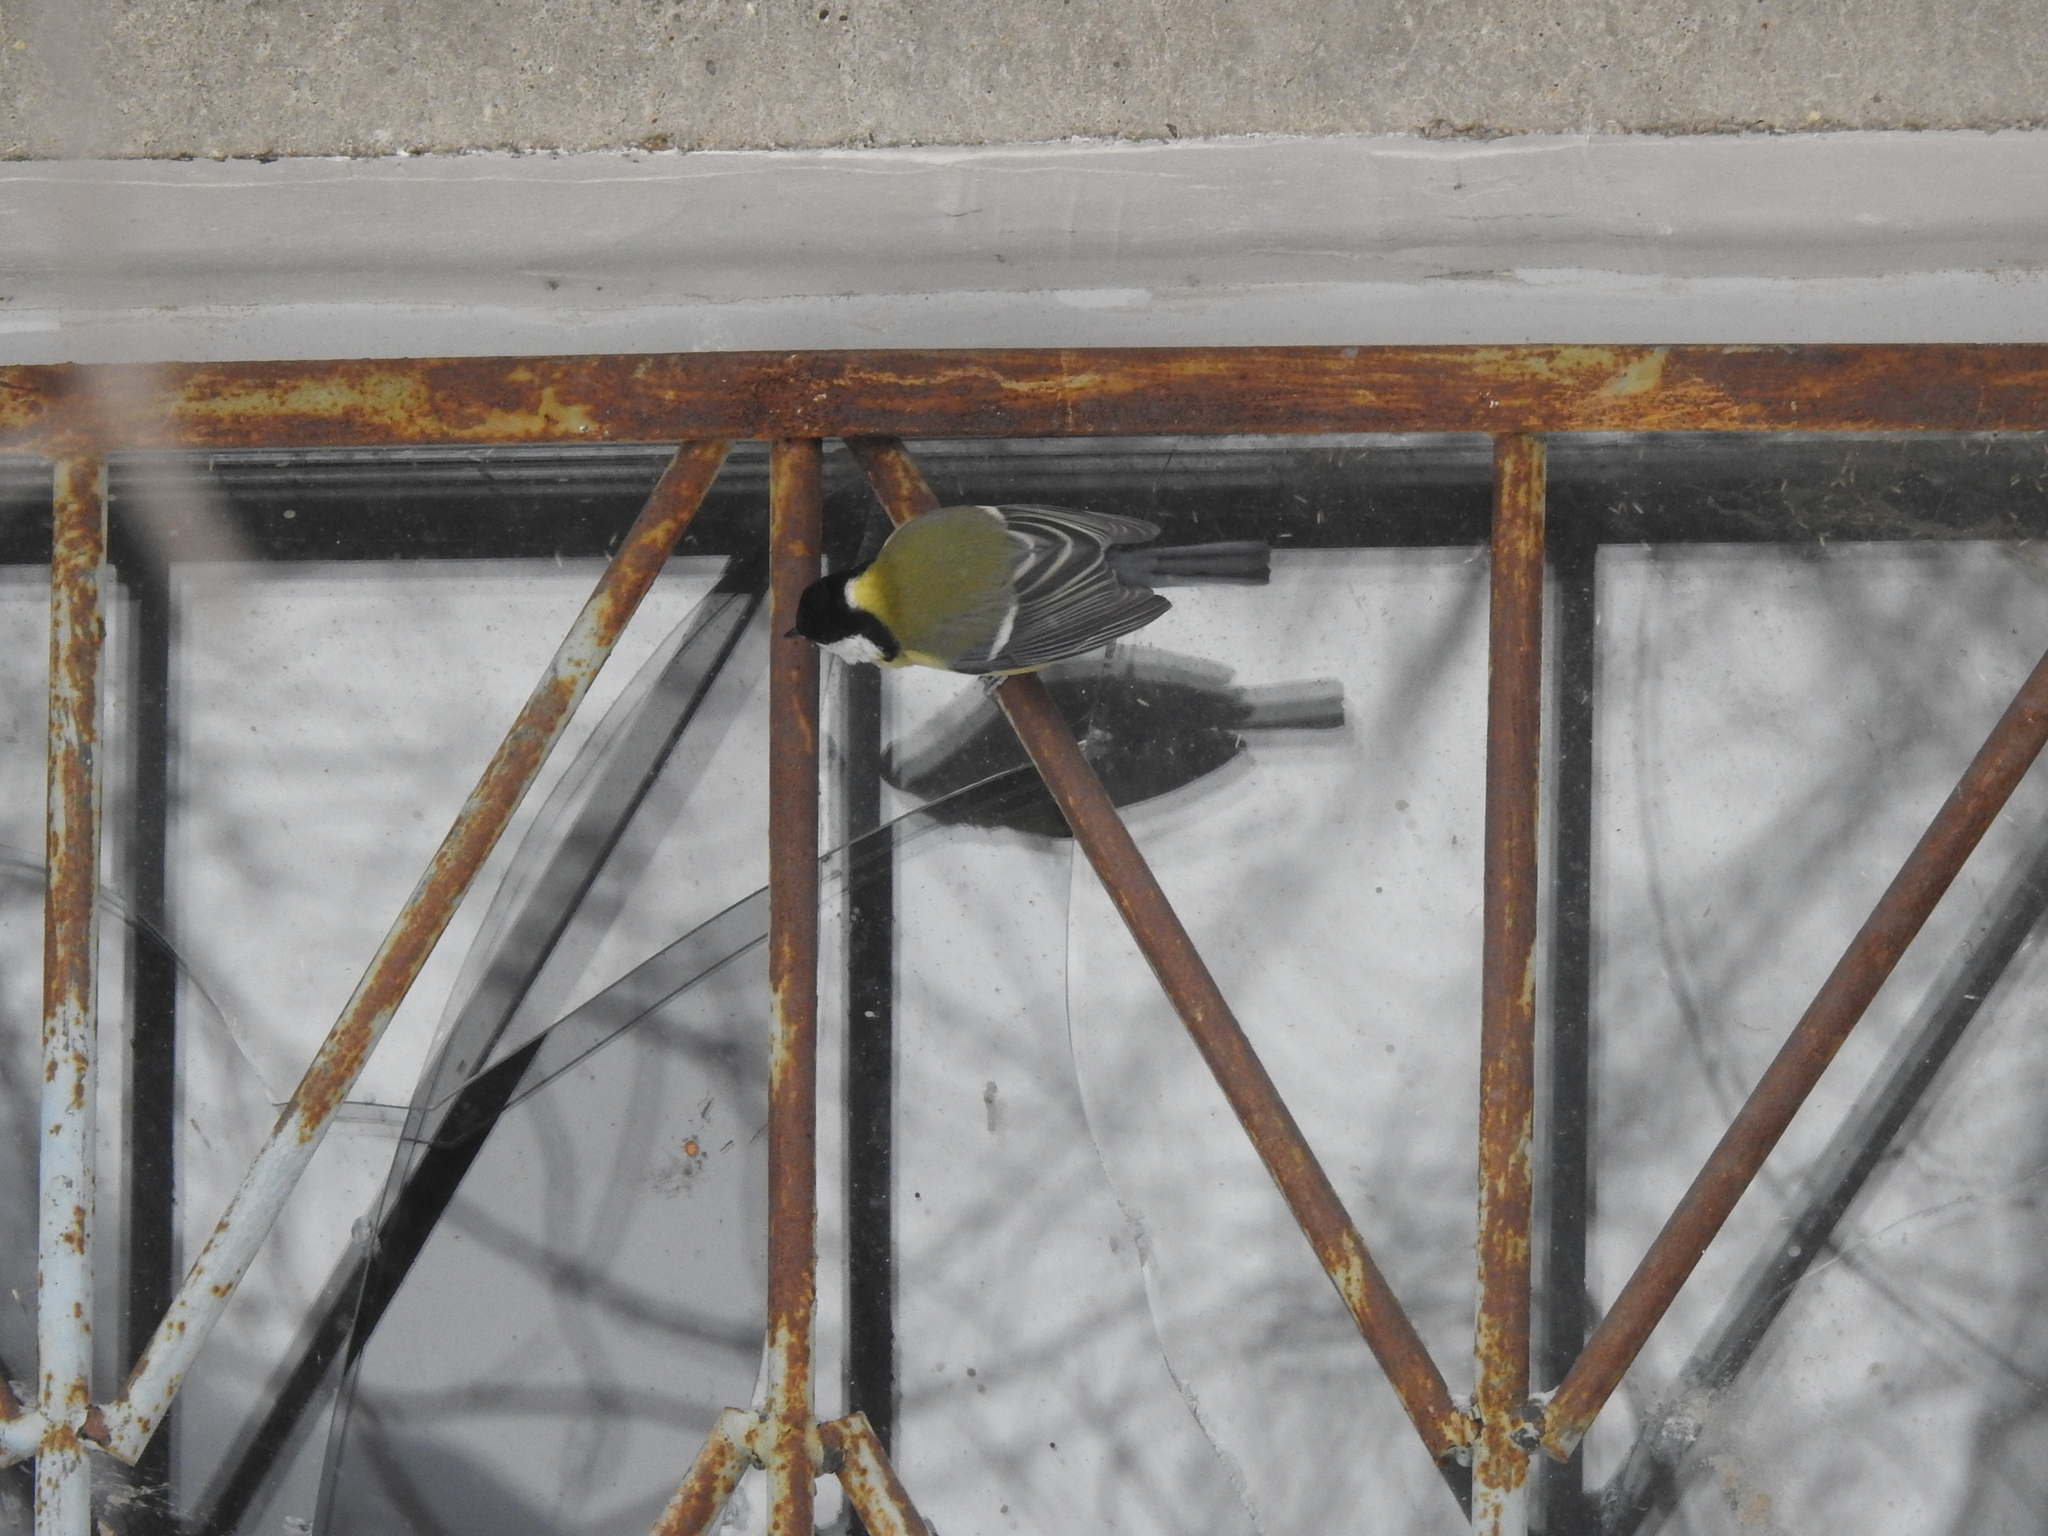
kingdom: Animalia
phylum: Chordata
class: Aves
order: Passeriformes
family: Paridae
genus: Parus
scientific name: Parus major
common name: Great tit
